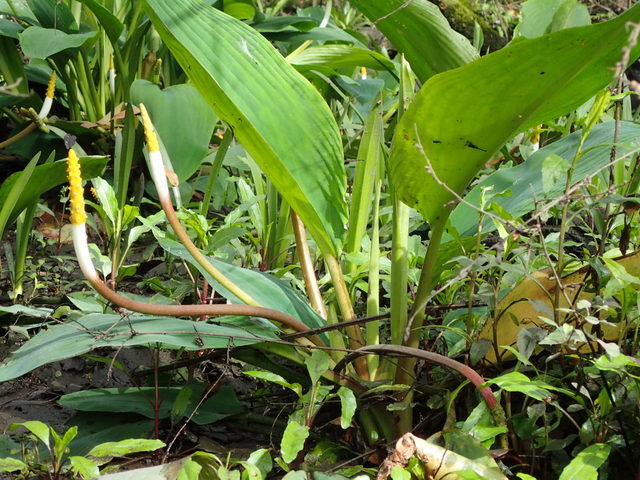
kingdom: Plantae
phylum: Tracheophyta
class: Liliopsida
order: Alismatales
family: Araceae
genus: Orontium
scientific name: Orontium aquaticum
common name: Golden-club
